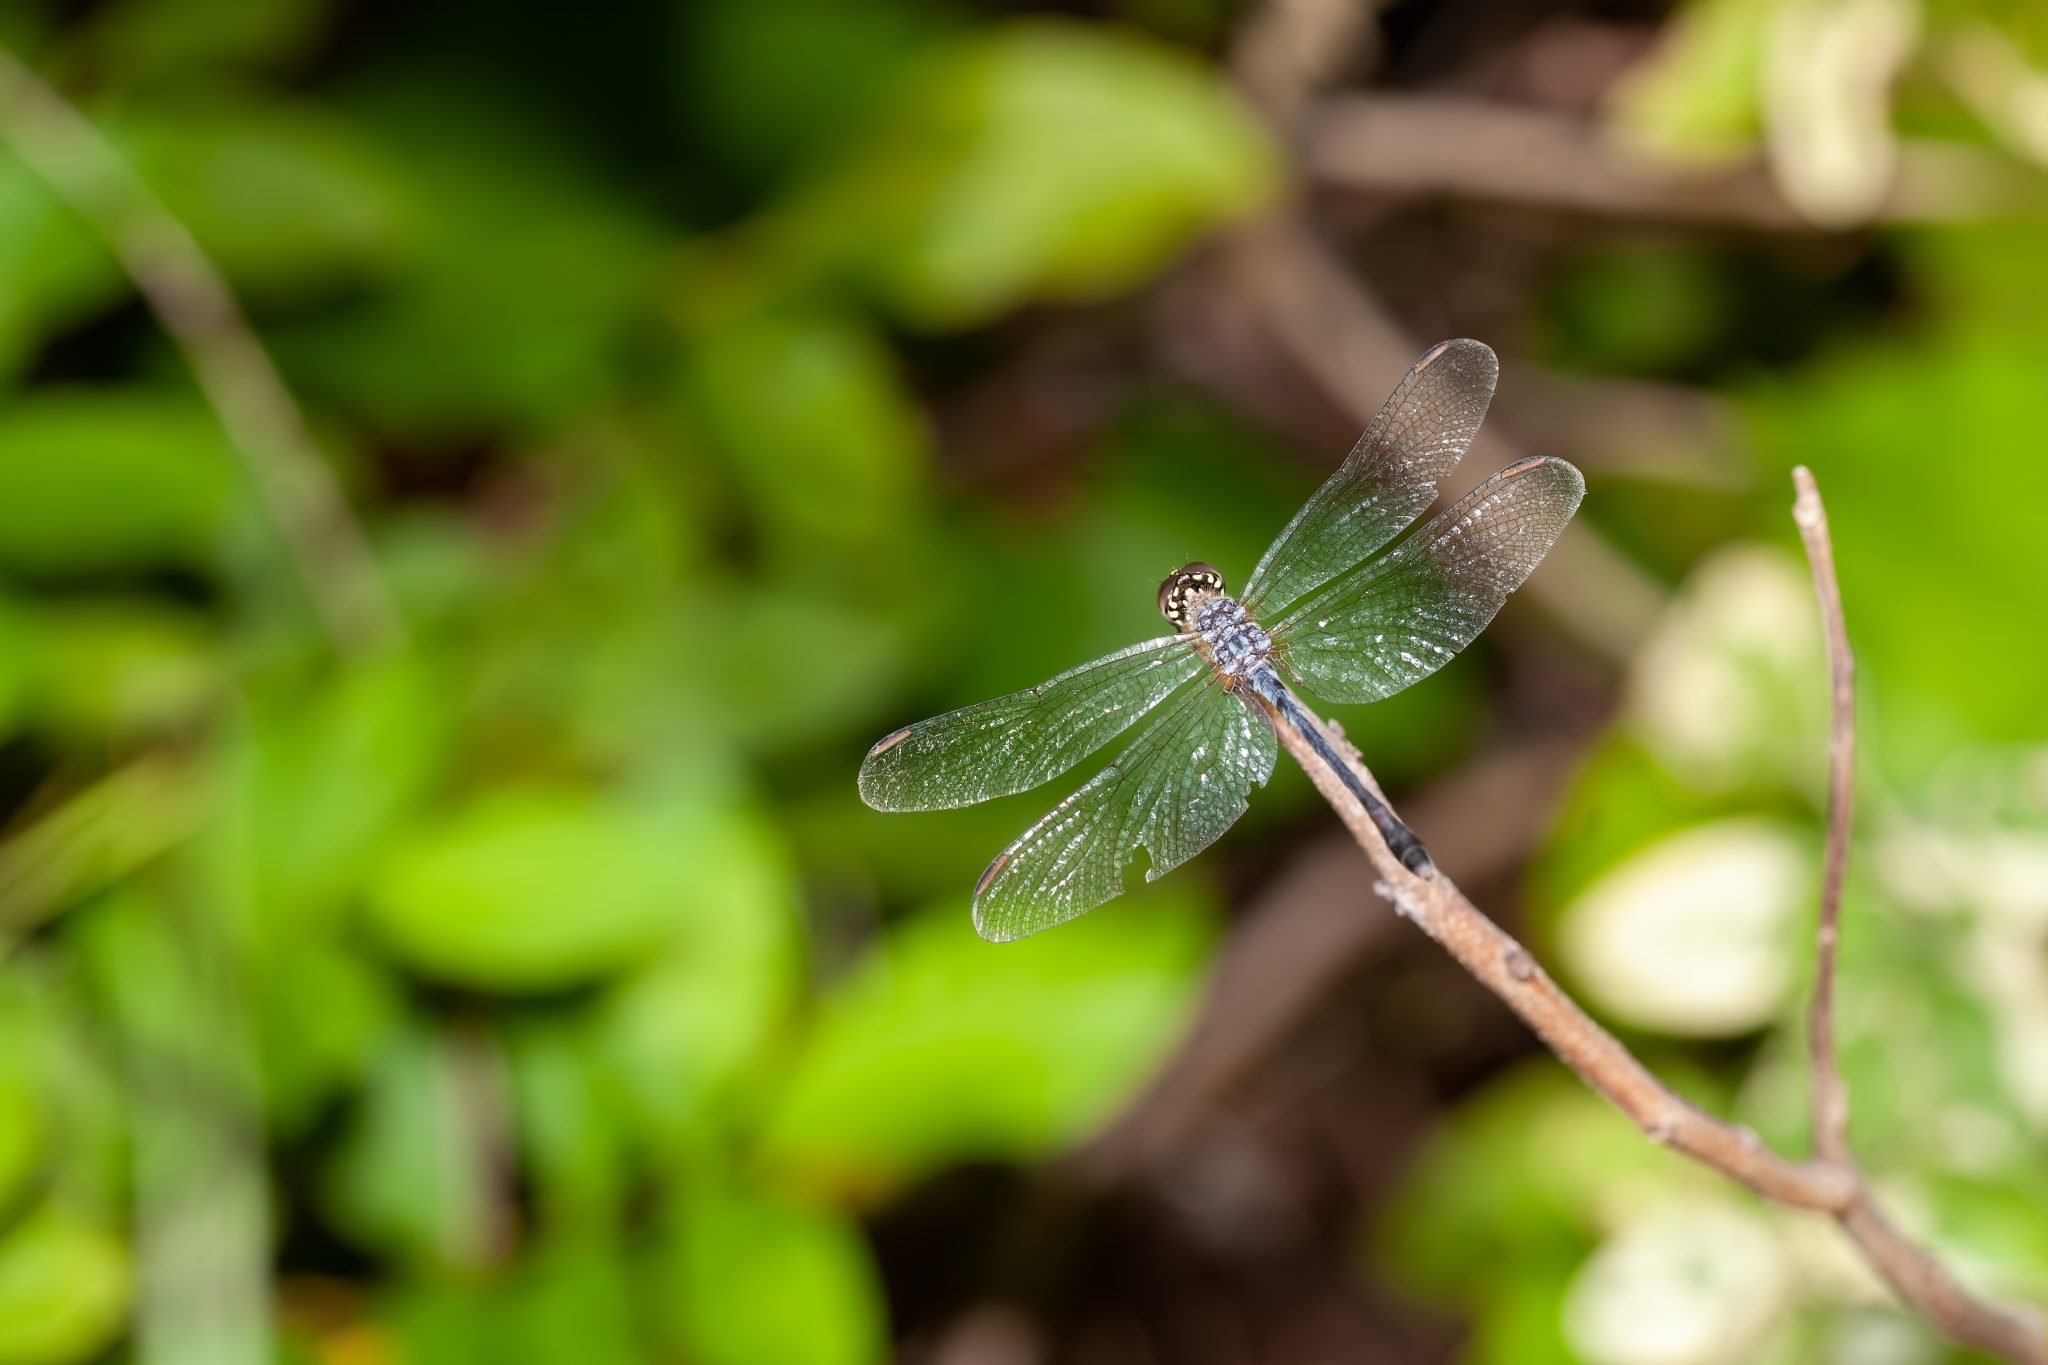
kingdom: Animalia
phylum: Arthropoda
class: Insecta
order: Odonata
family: Libellulidae
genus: Erythrodiplax
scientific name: Erythrodiplax berenice
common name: Seaside dragonlet
